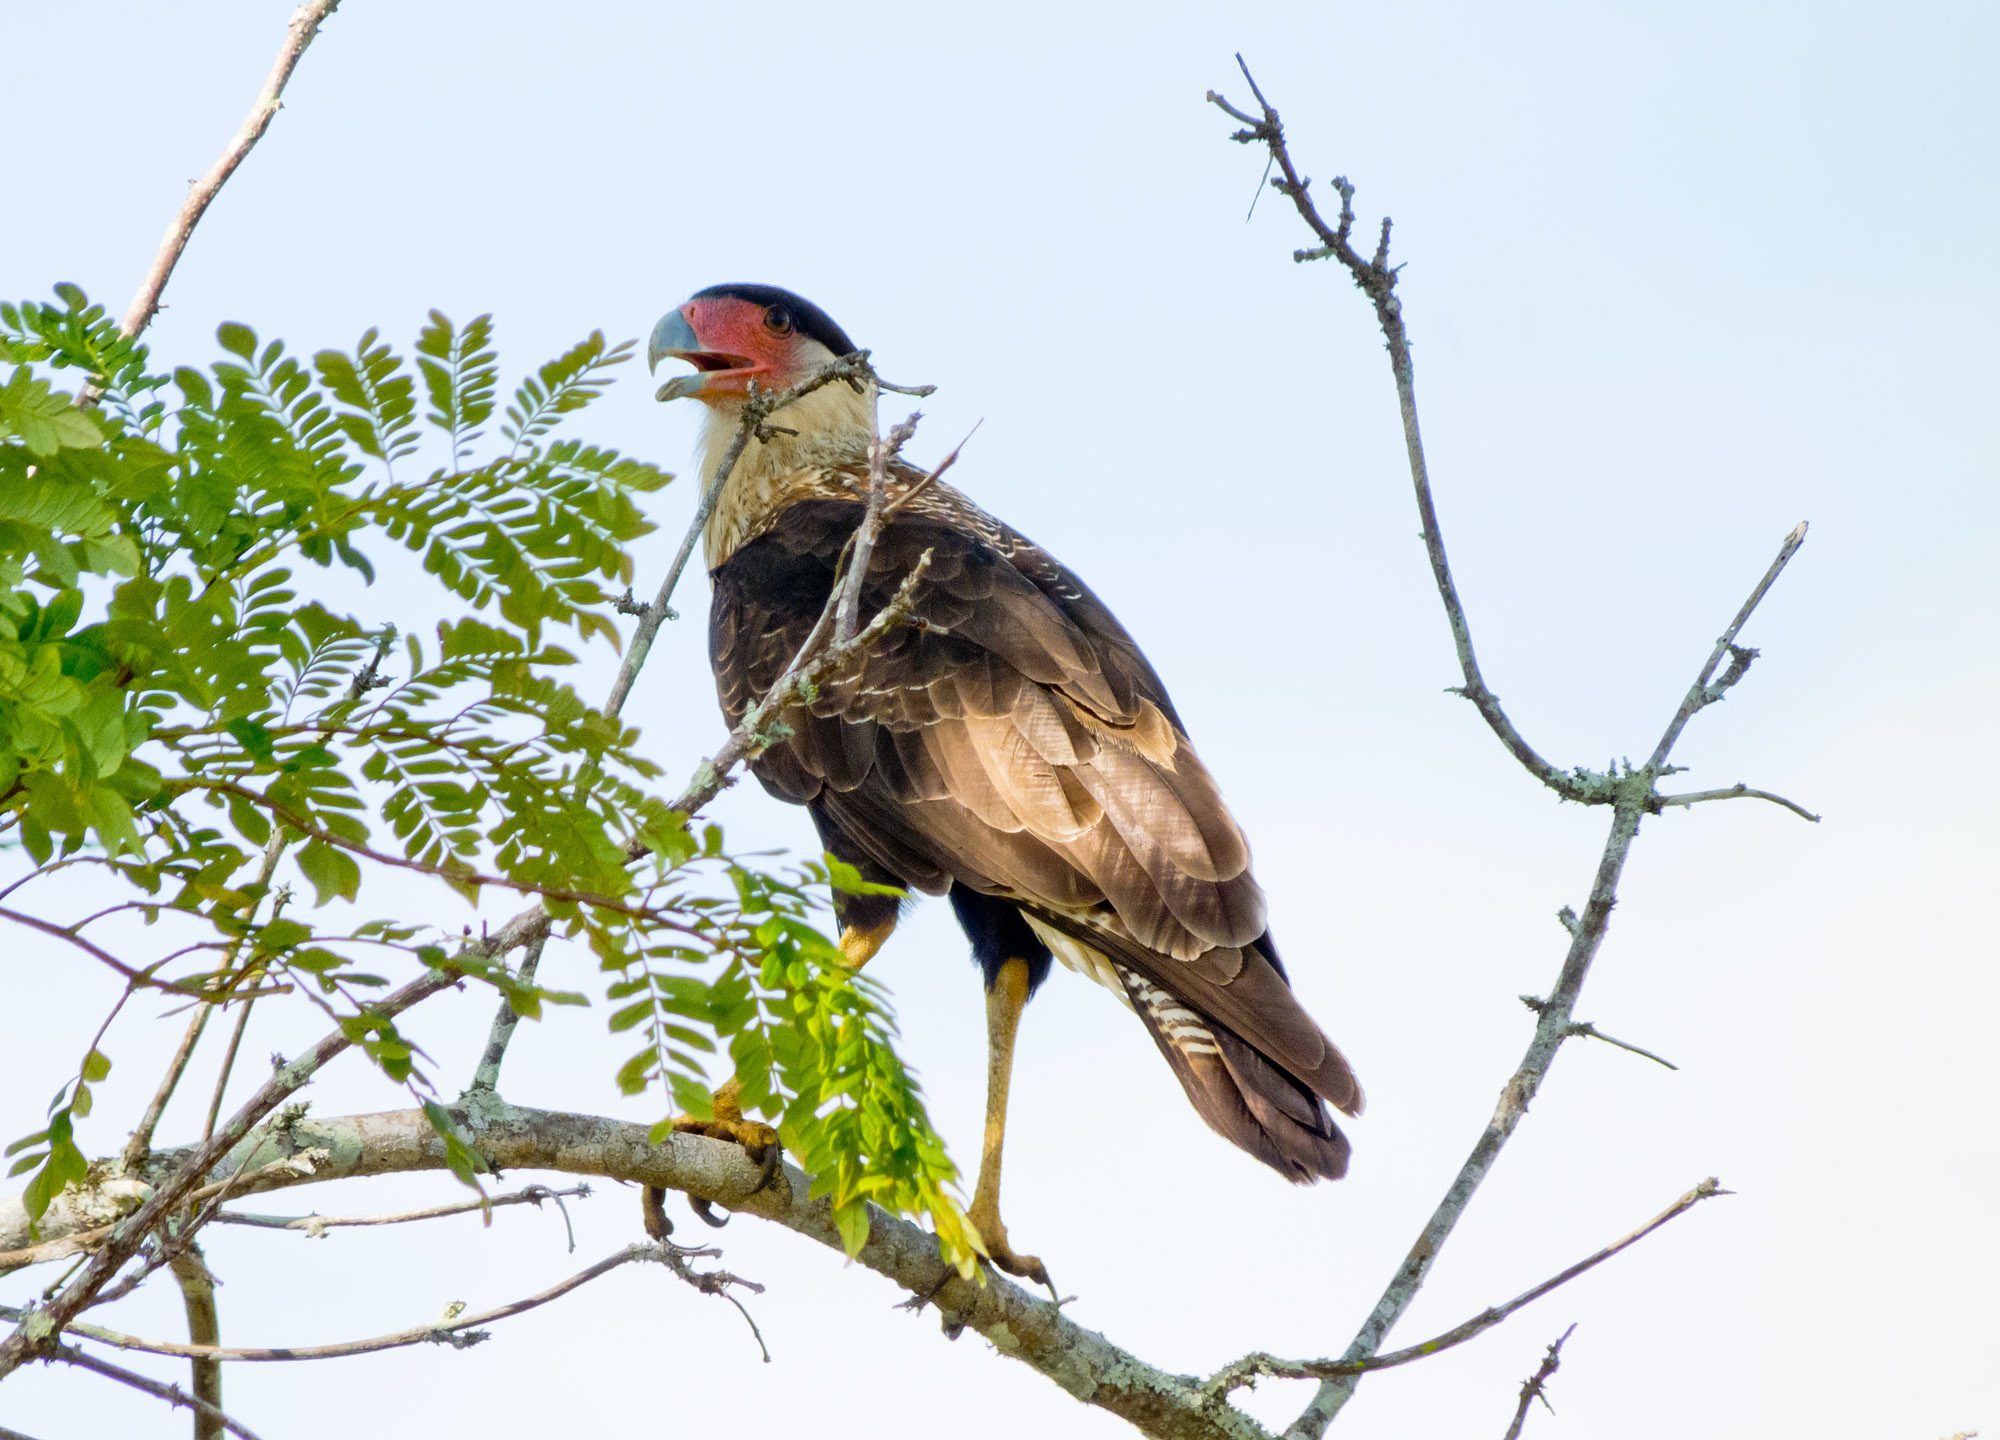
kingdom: Animalia
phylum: Chordata
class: Aves
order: Falconiformes
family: Falconidae
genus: Caracara
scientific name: Caracara plancus
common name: Southern caracara
